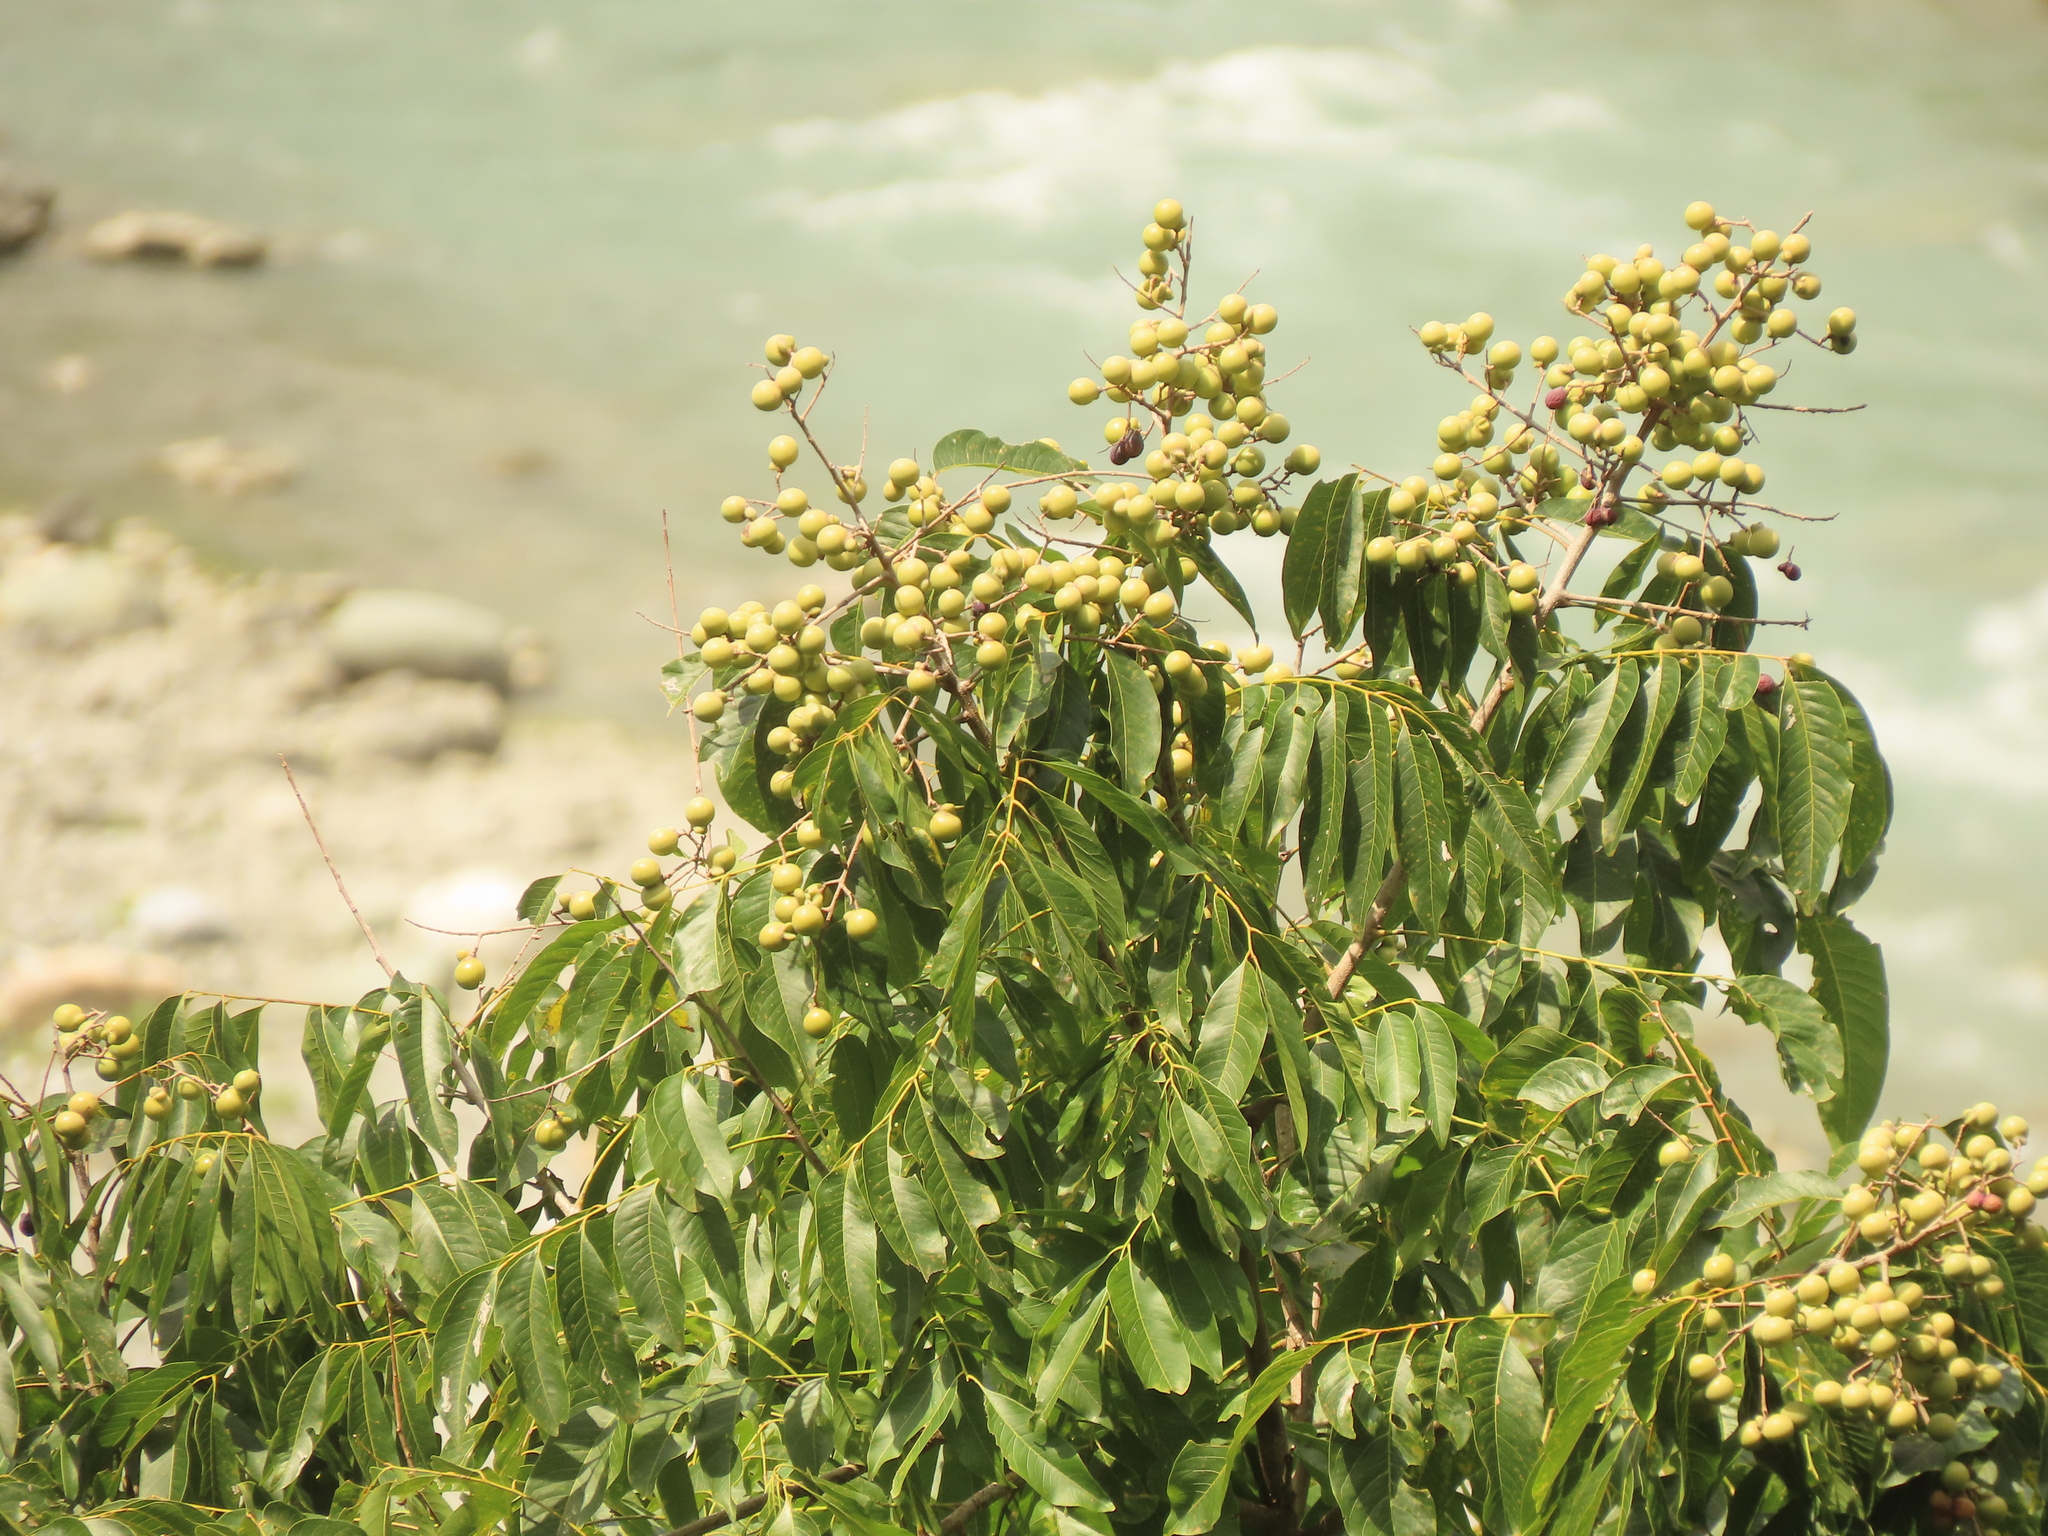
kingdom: Plantae
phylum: Tracheophyta
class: Magnoliopsida
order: Sapindales
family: Sapindaceae
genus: Sapindus
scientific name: Sapindus mukorossi
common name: Chinese soapberry
